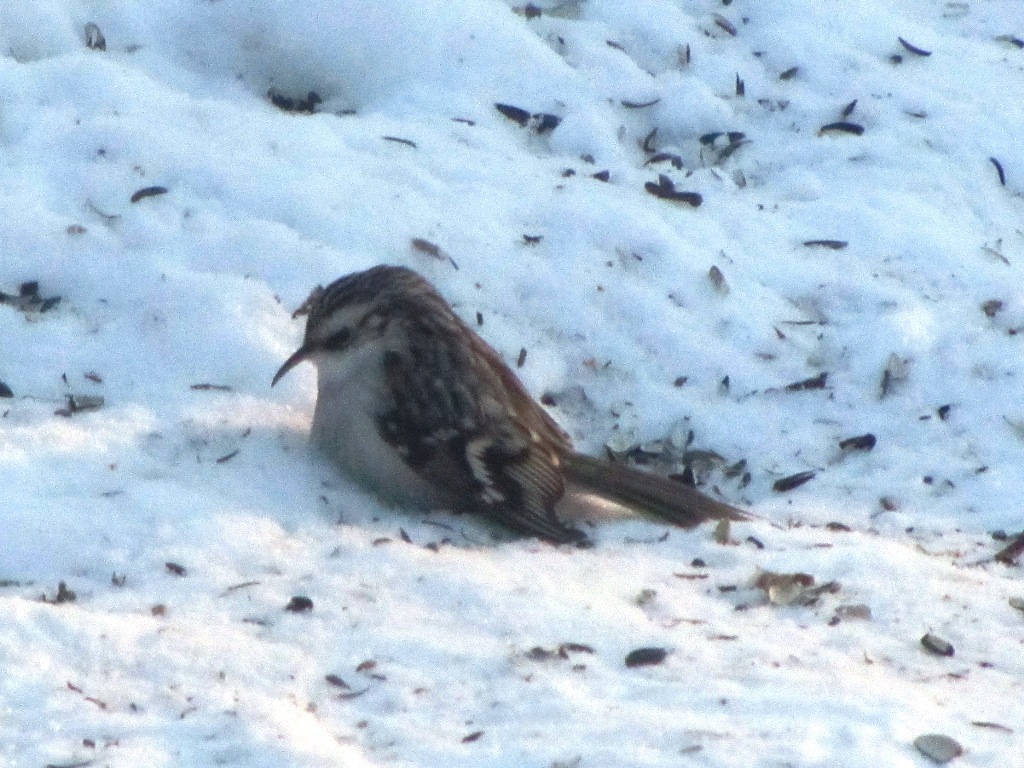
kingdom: Animalia
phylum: Chordata
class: Aves
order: Passeriformes
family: Certhiidae
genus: Certhia
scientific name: Certhia familiaris
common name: Eurasian treecreeper
